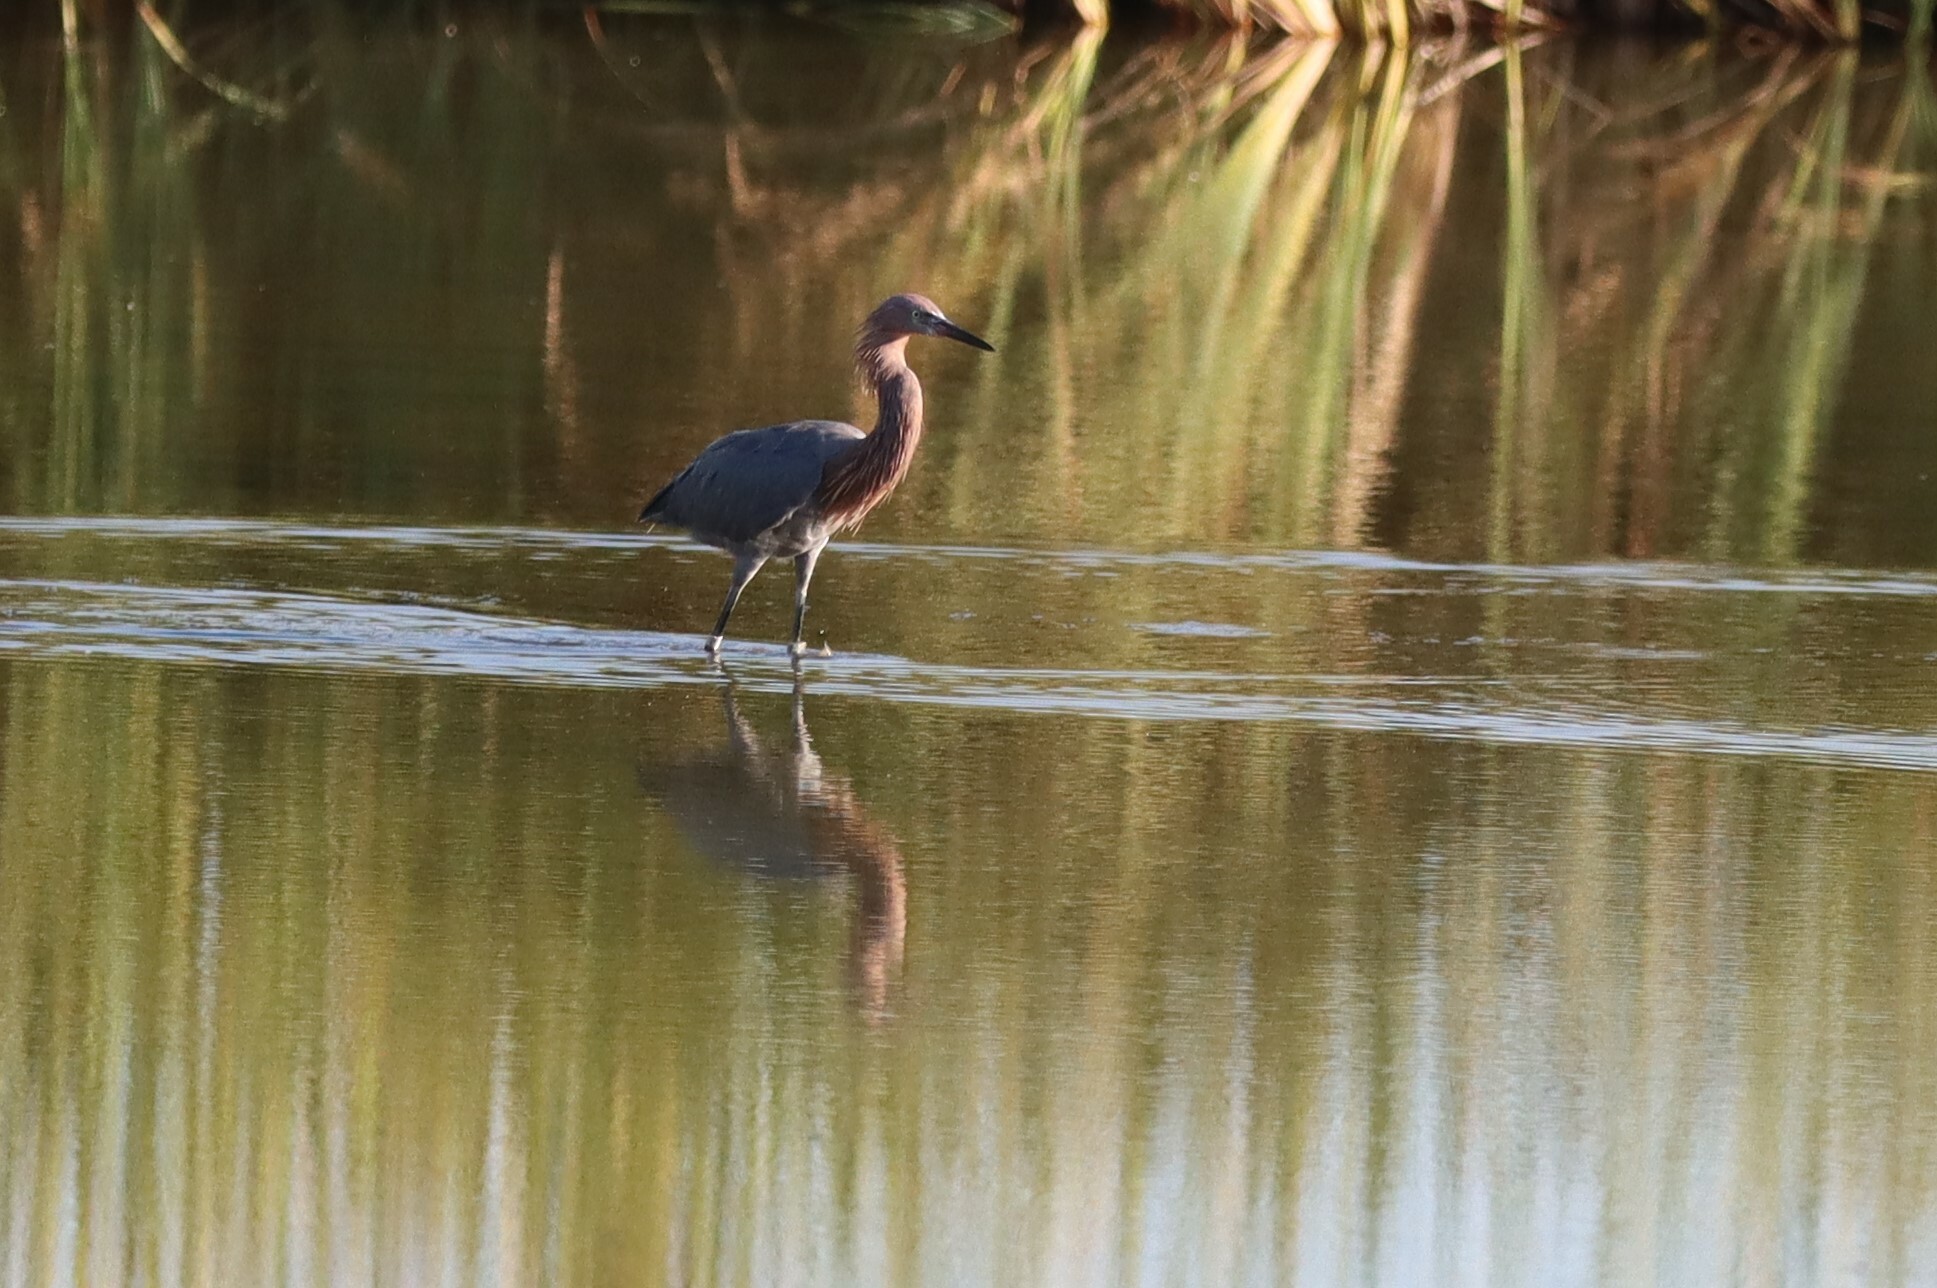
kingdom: Animalia
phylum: Chordata
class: Aves
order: Pelecaniformes
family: Ardeidae
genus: Egretta
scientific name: Egretta rufescens
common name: Reddish egret
